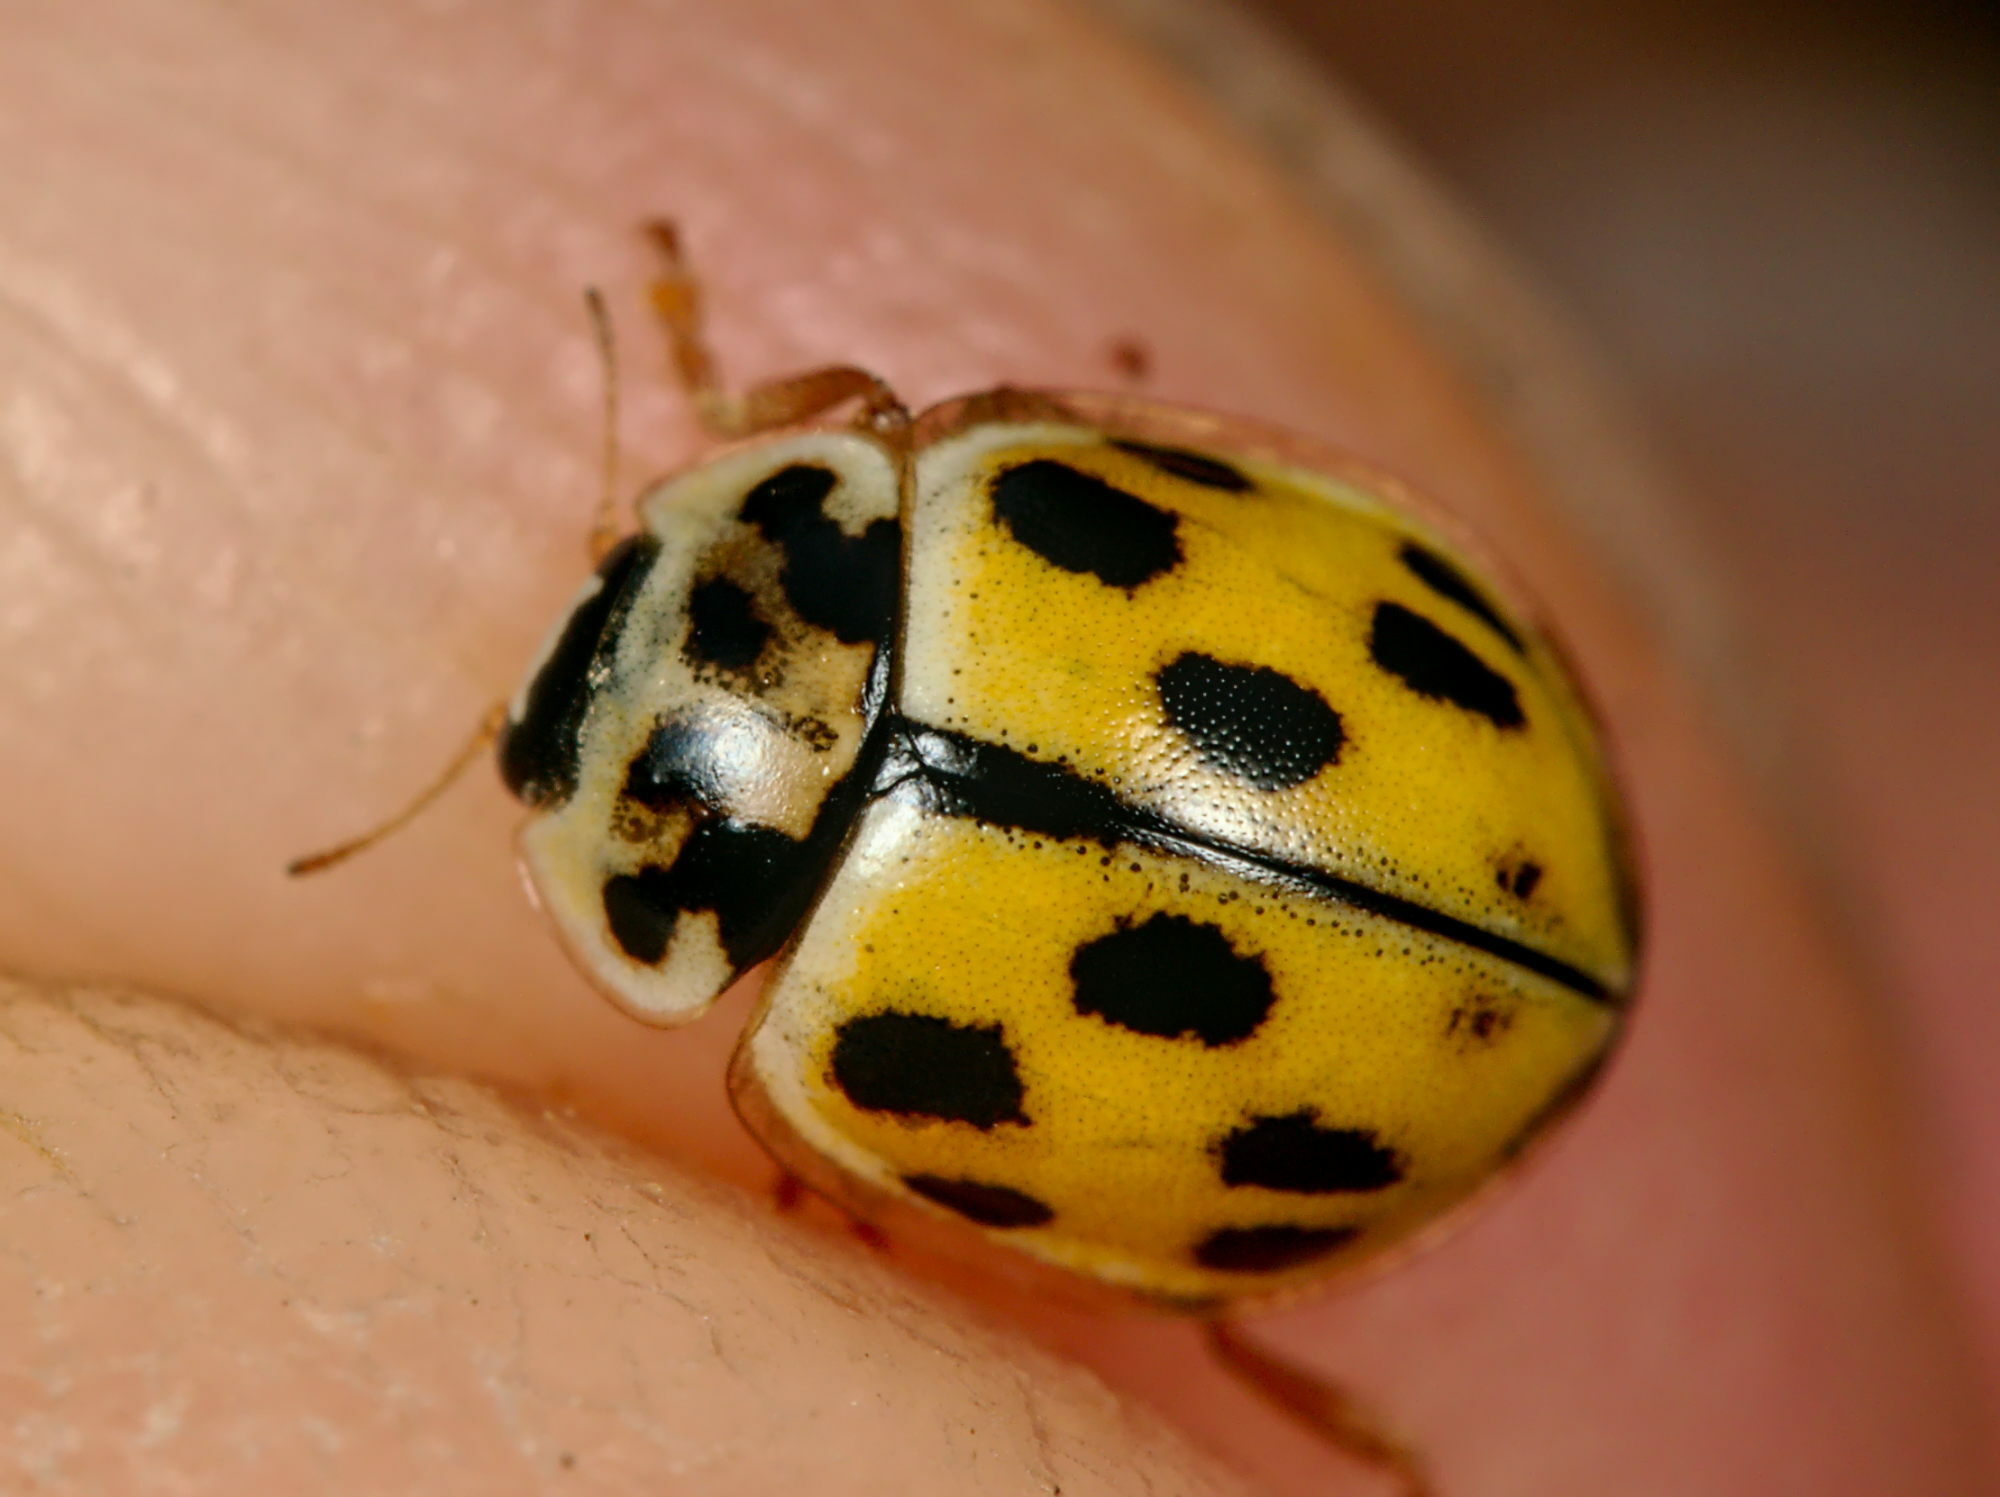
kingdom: Animalia
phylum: Arthropoda
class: Insecta
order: Coleoptera
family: Coccinellidae
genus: Propylaea
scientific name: Propylaea quatuordecimpunctata
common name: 14-spotted ladybird beetle
